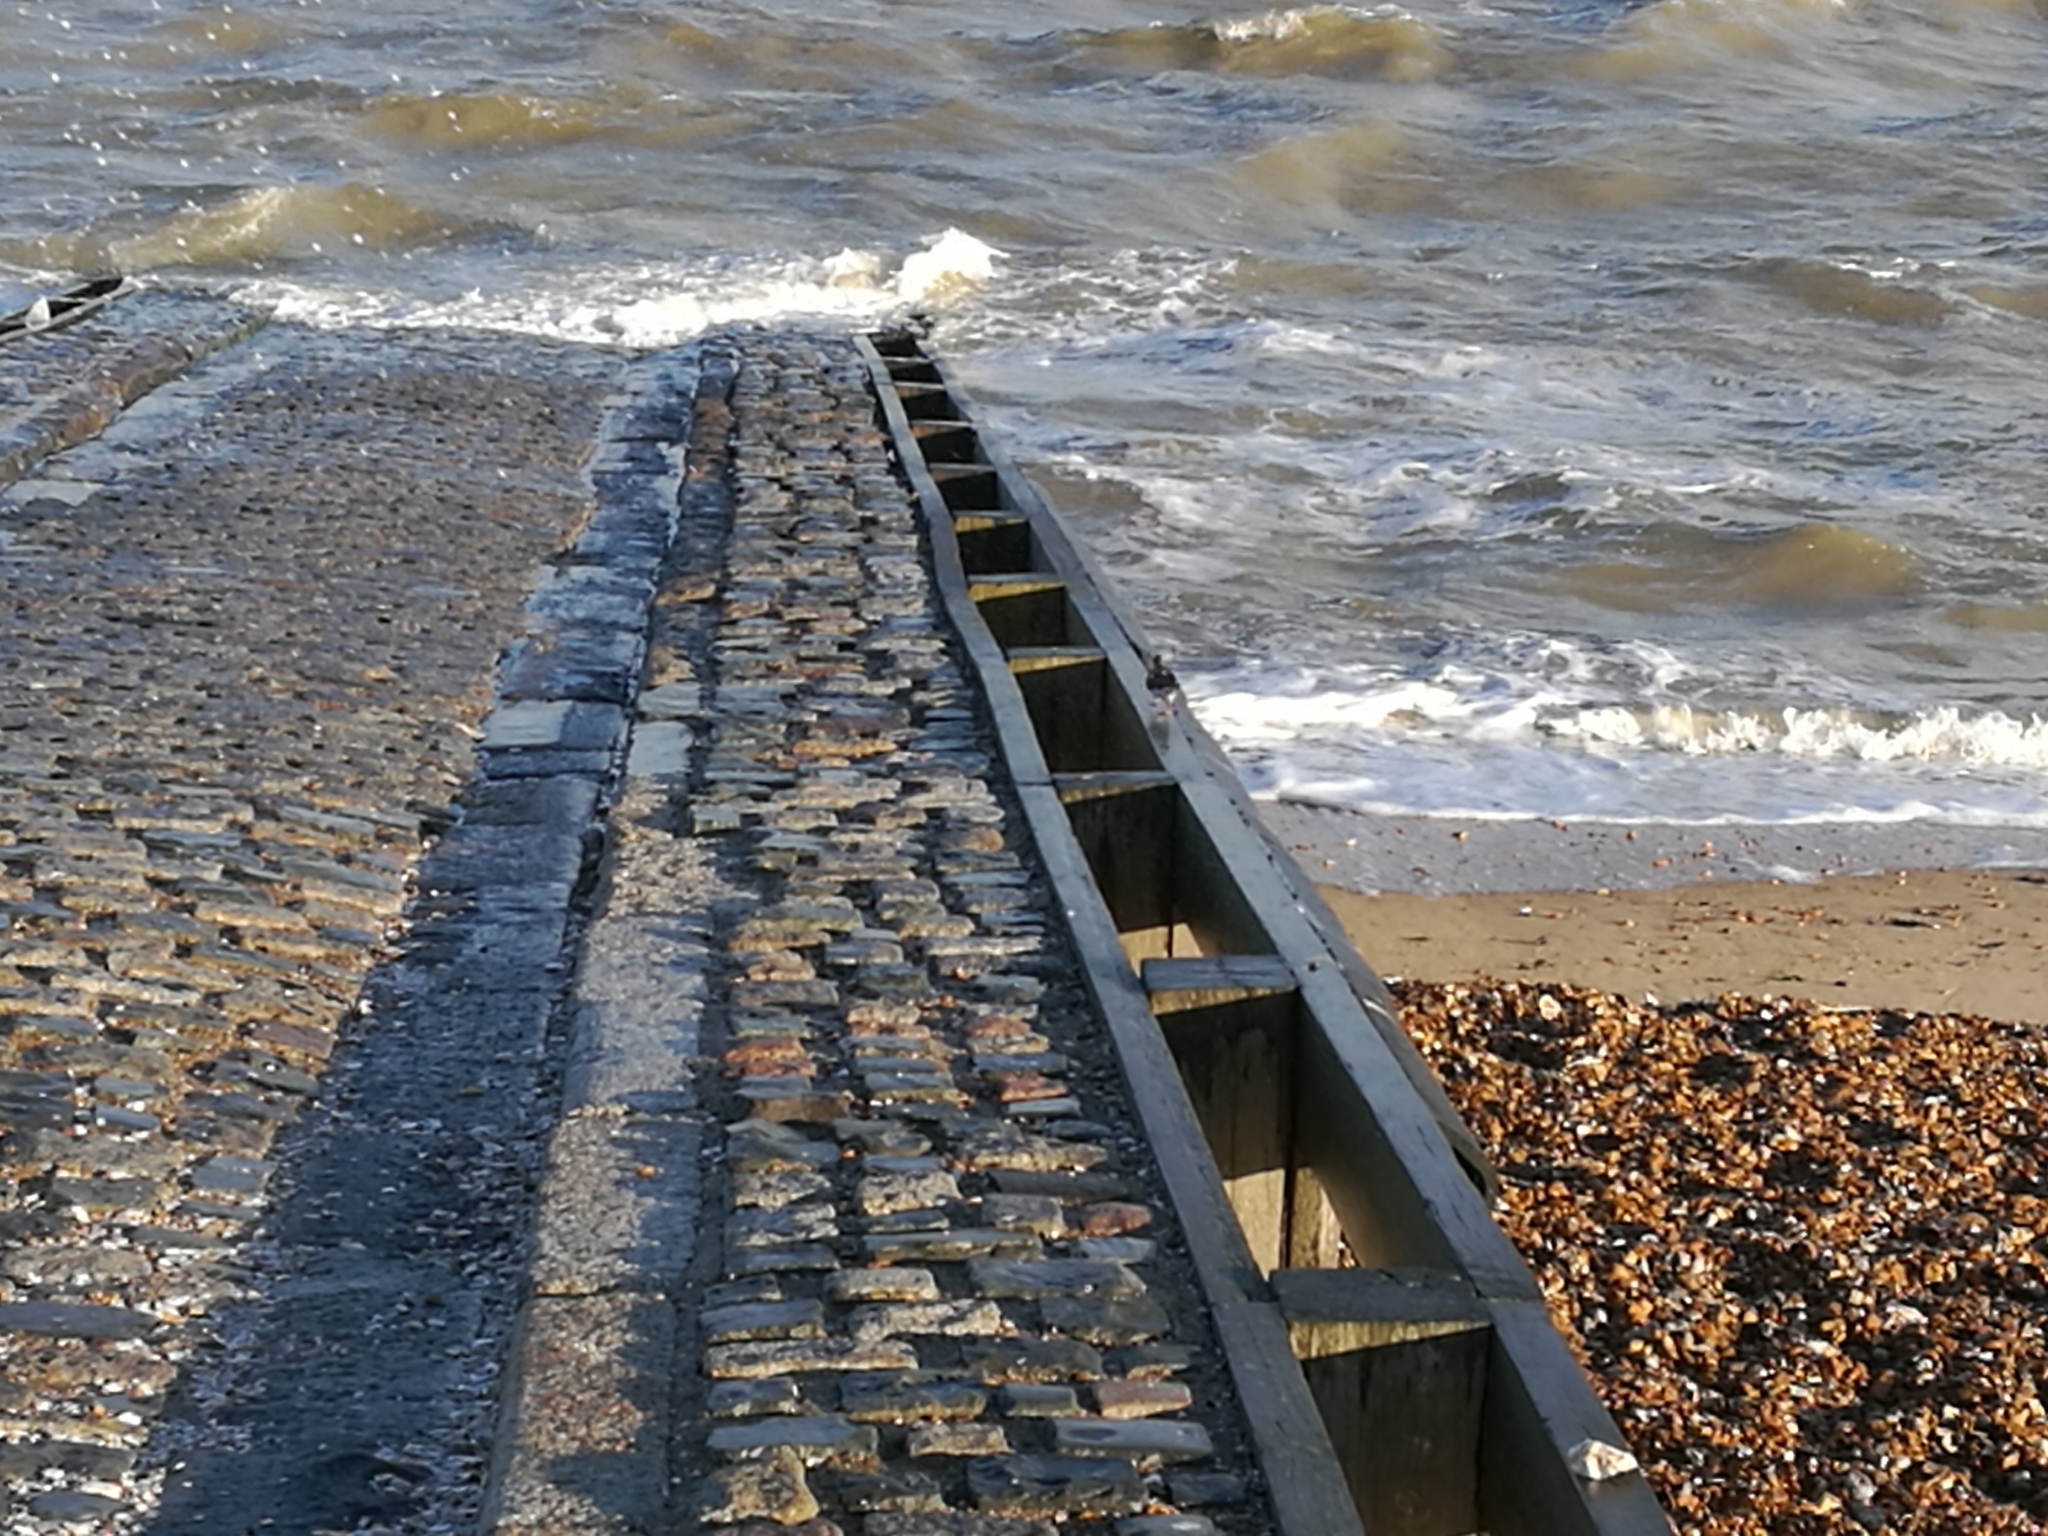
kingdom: Animalia
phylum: Chordata
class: Aves
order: Charadriiformes
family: Scolopacidae
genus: Arenaria
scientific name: Arenaria interpres
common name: Ruddy turnstone
